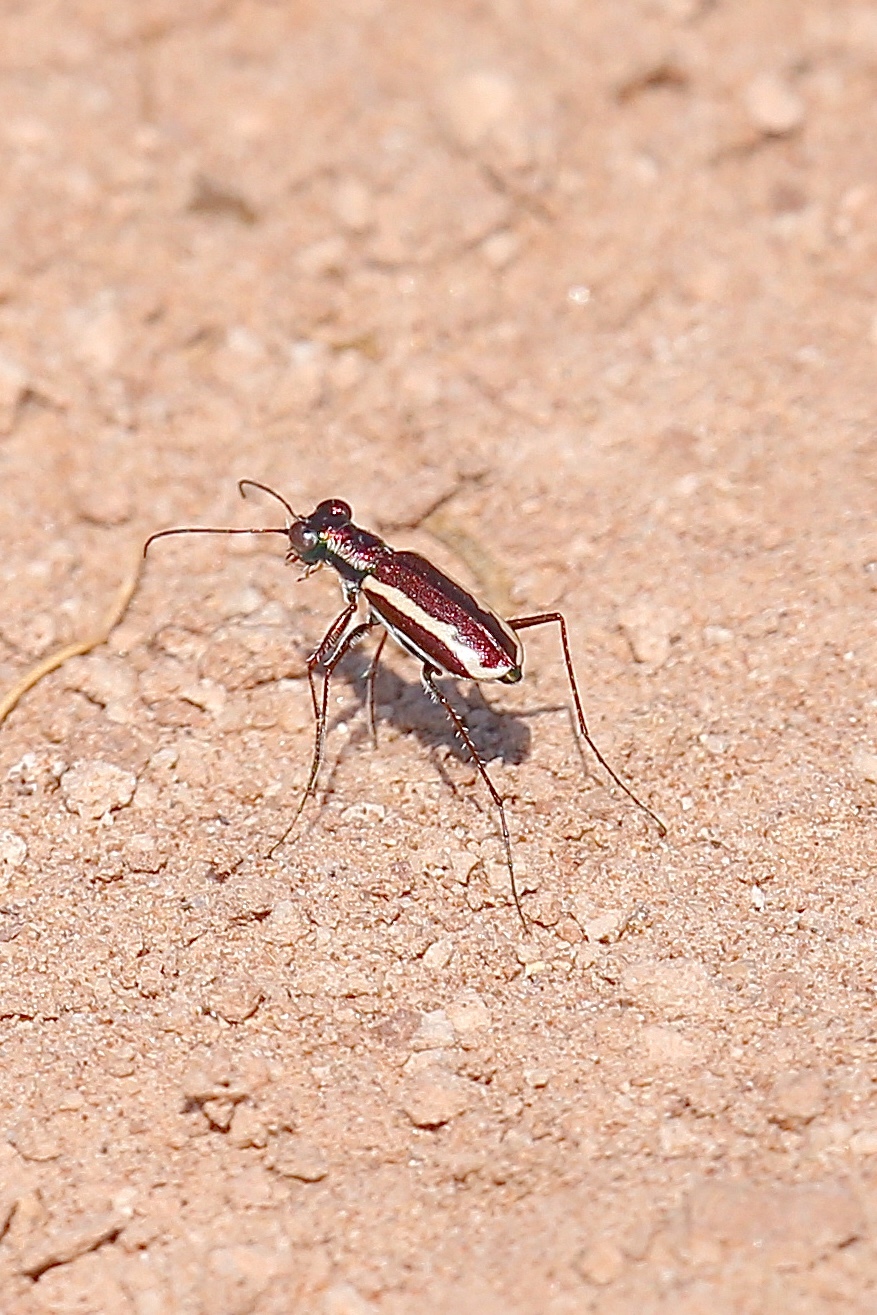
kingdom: Animalia
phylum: Arthropoda
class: Insecta
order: Coleoptera
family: Carabidae
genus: Cylindera
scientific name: Cylindera lemniscata
